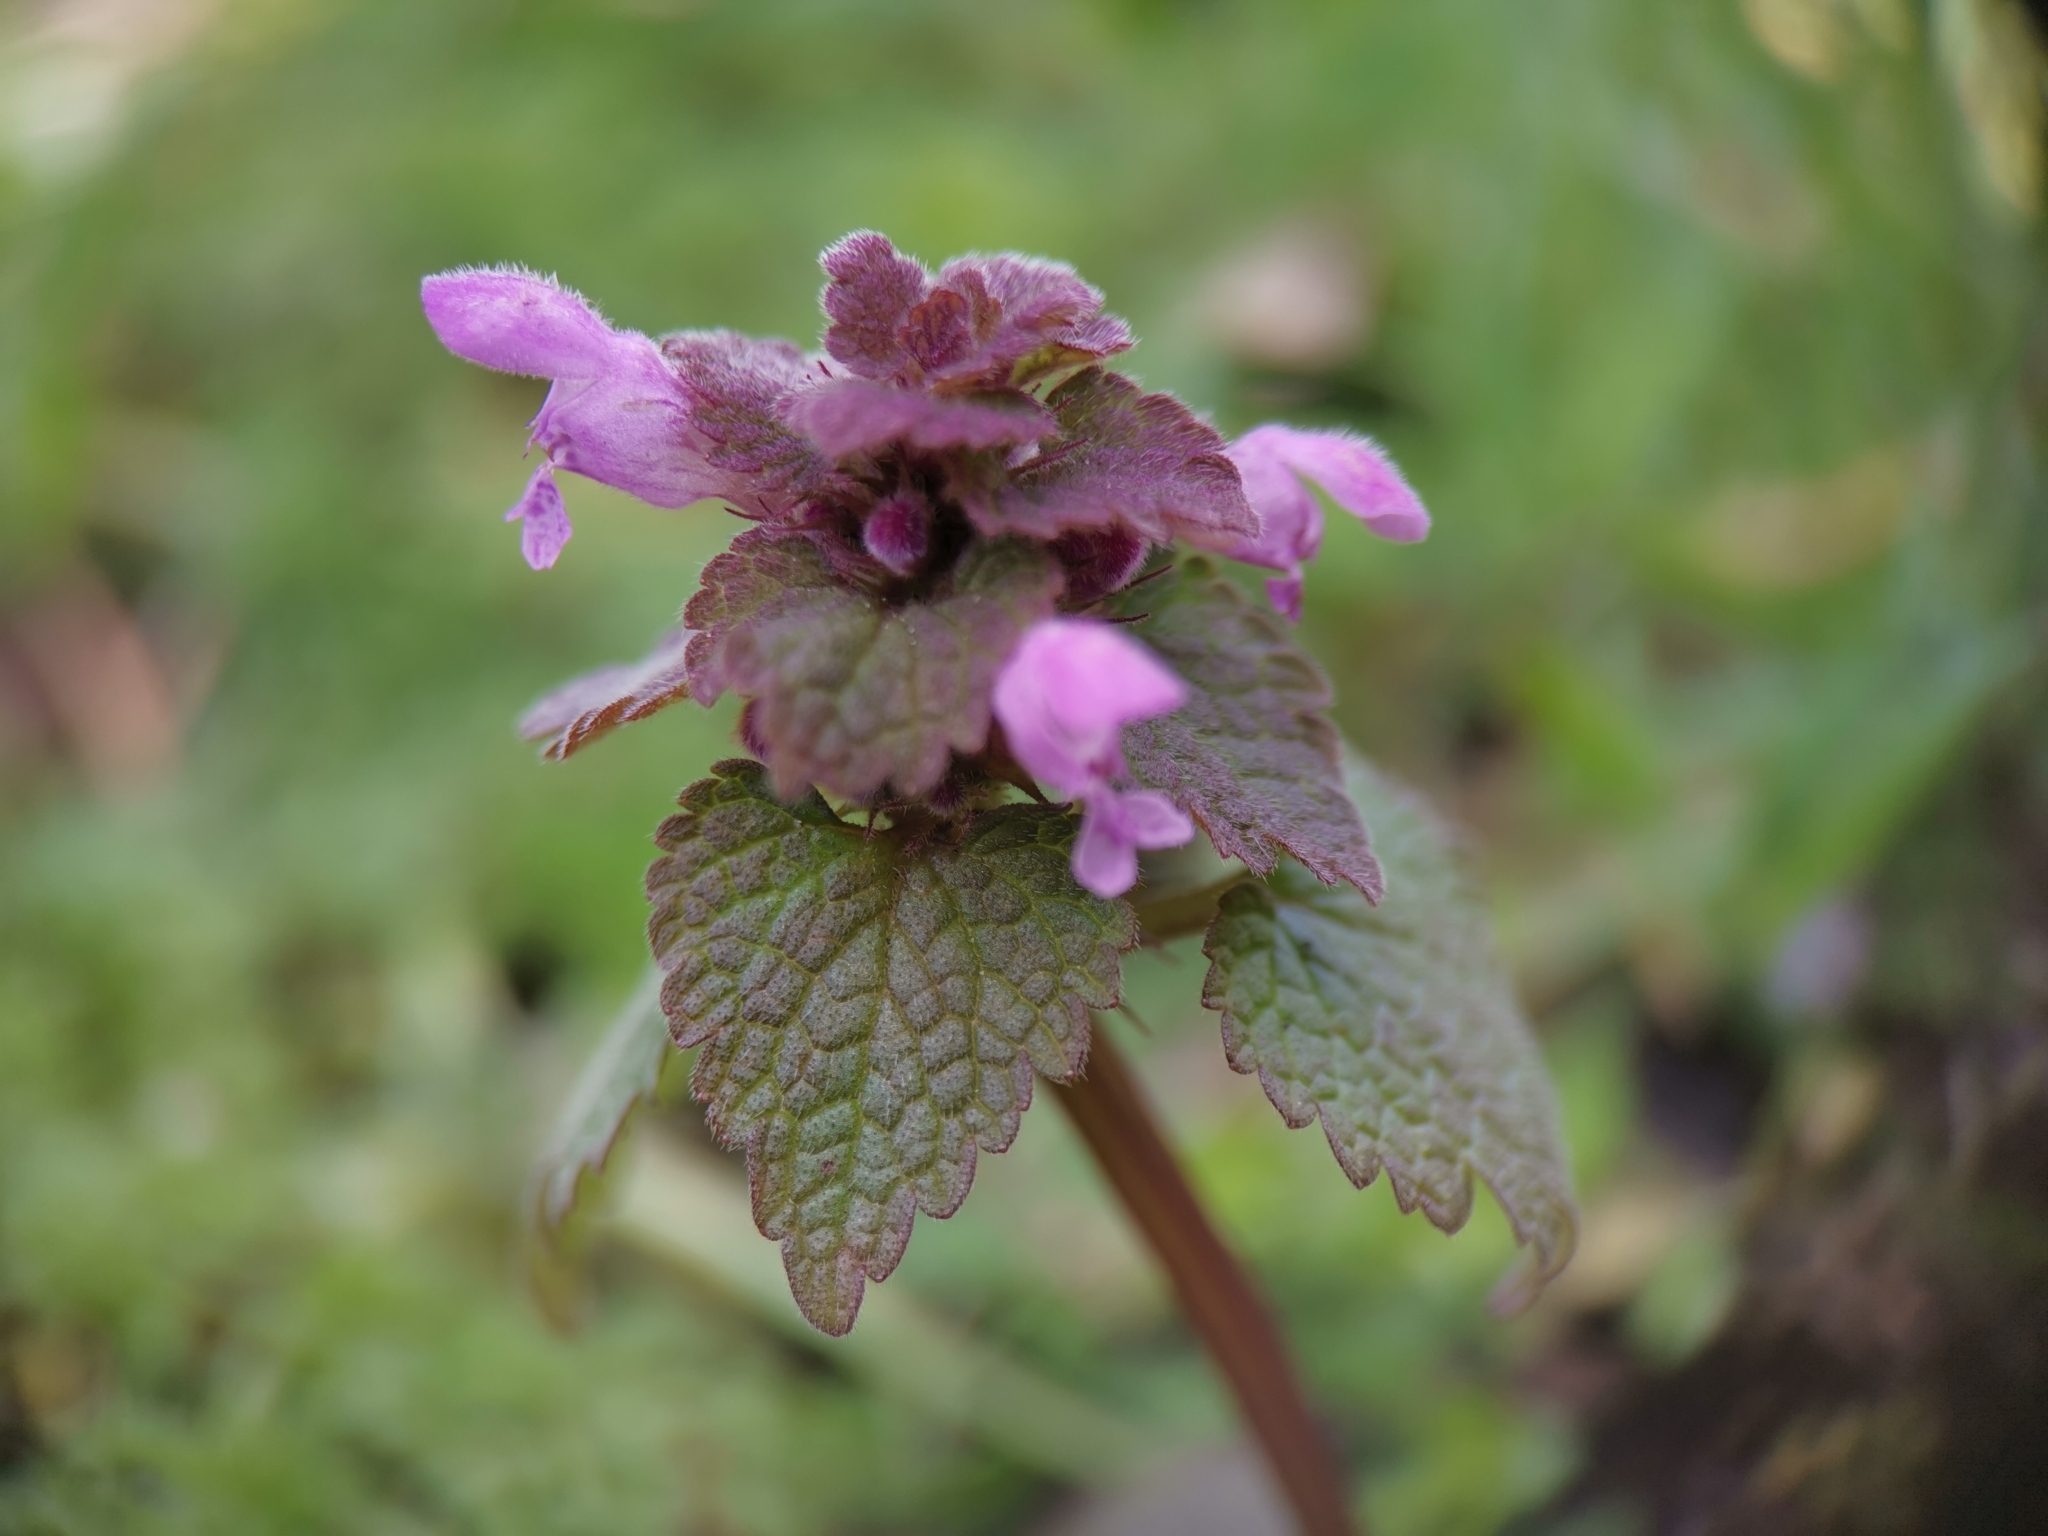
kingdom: Plantae
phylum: Tracheophyta
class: Magnoliopsida
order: Lamiales
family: Lamiaceae
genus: Lamium
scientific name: Lamium purpureum
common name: Red dead-nettle
